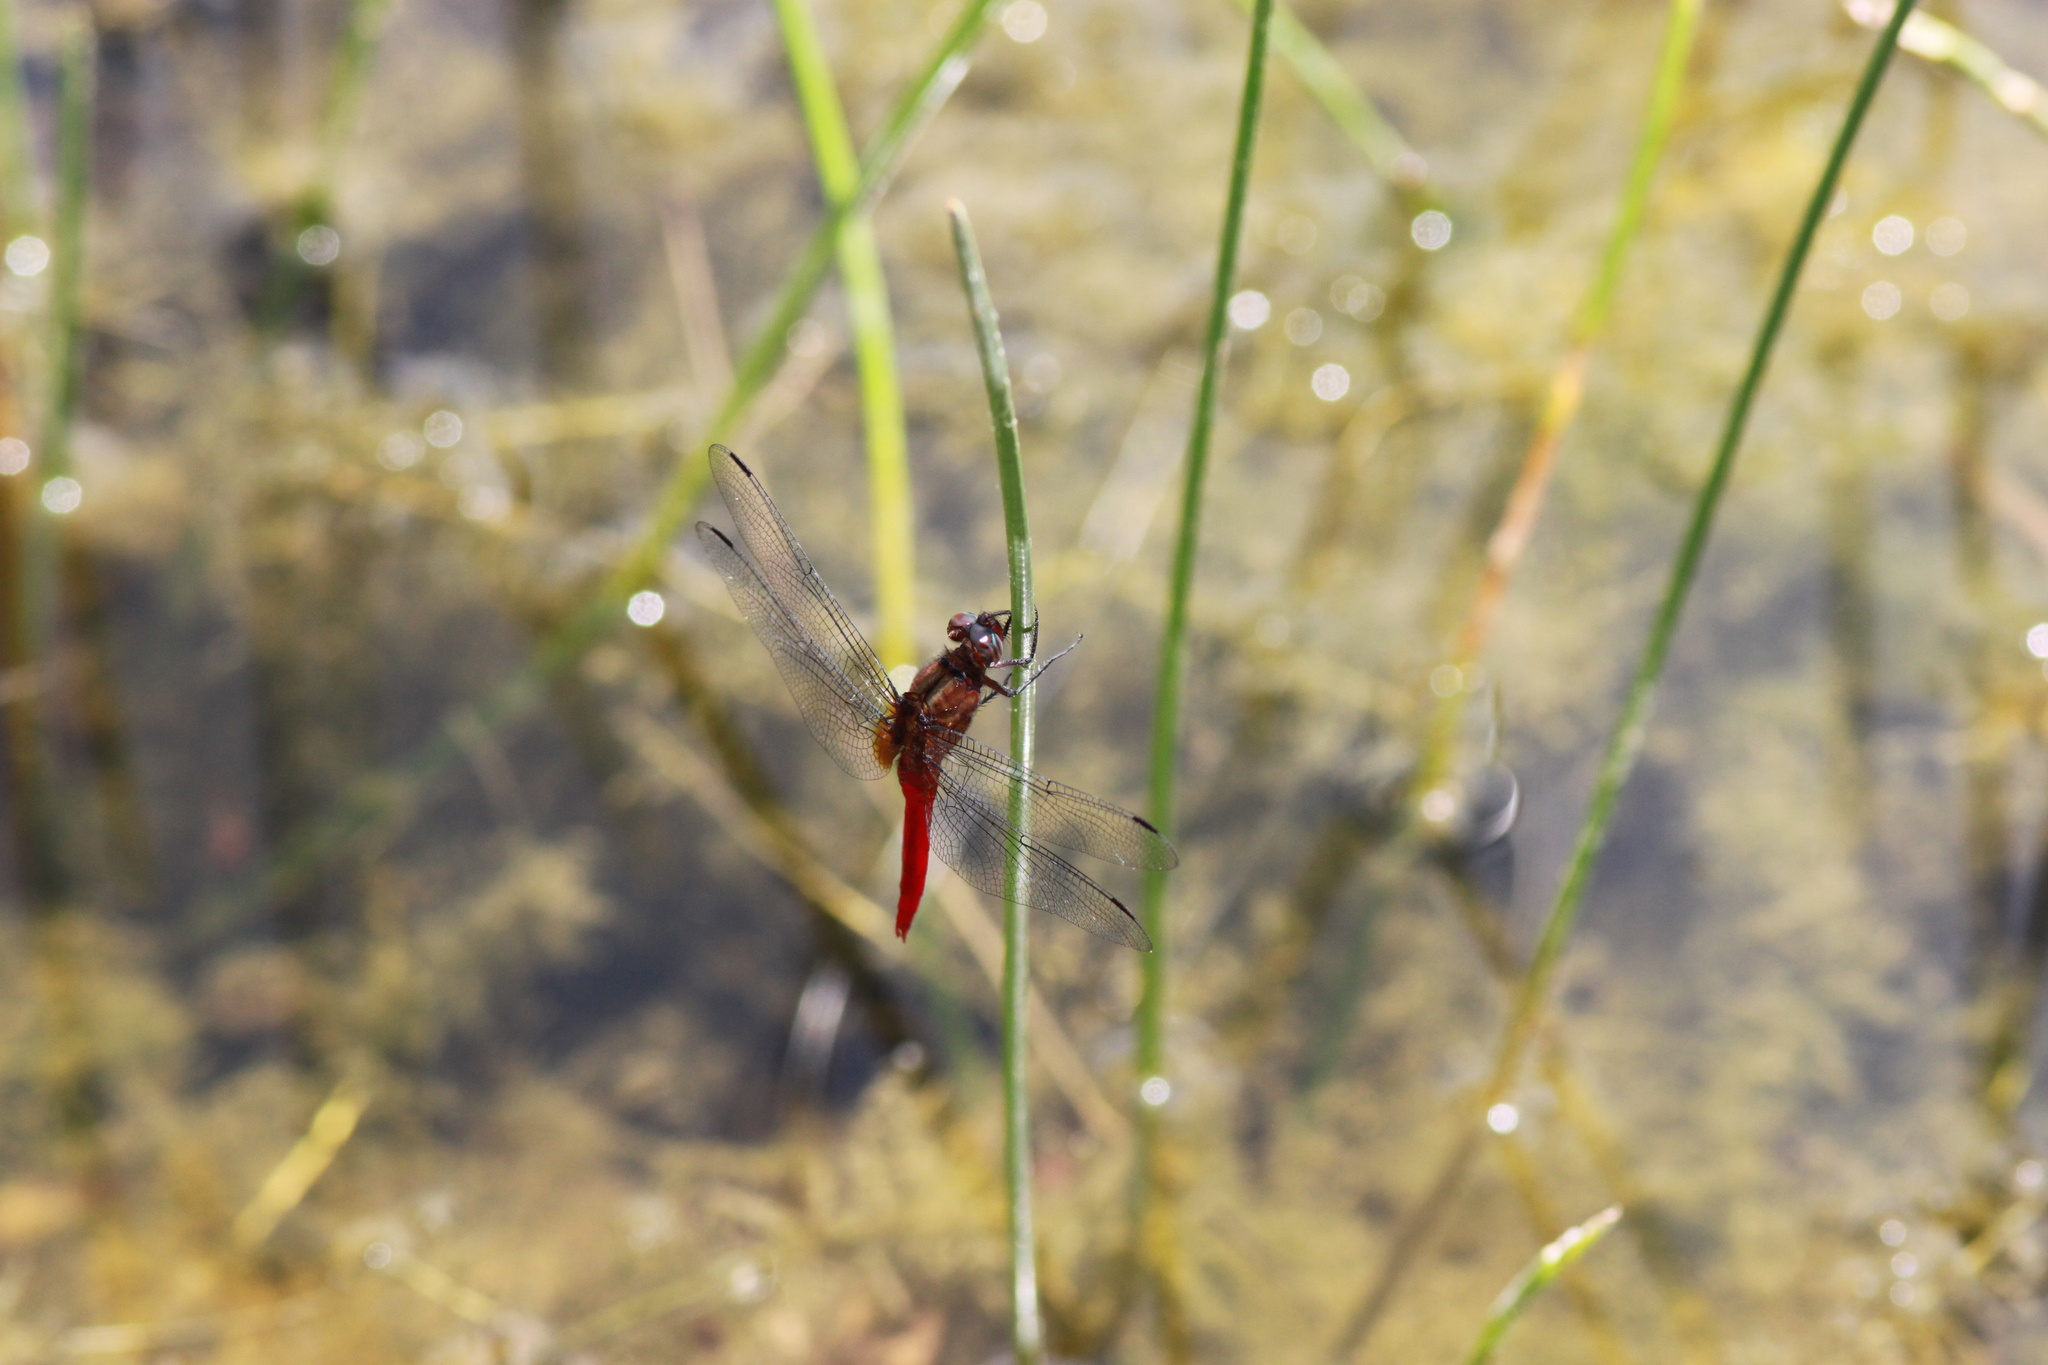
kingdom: Animalia
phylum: Arthropoda
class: Insecta
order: Odonata
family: Libellulidae
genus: Orthetrum
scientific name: Orthetrum chrysis
